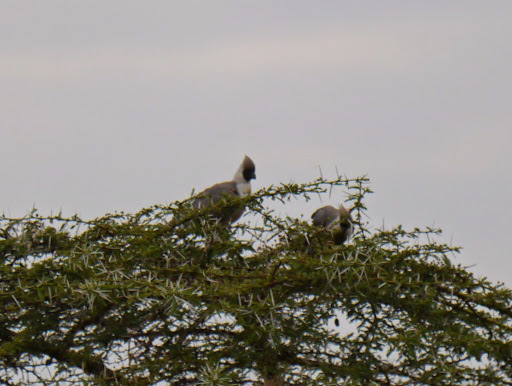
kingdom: Animalia
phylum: Chordata
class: Aves
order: Musophagiformes
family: Musophagidae
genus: Corythaixoides
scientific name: Corythaixoides personatus
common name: Bare-faced go-away-bird
